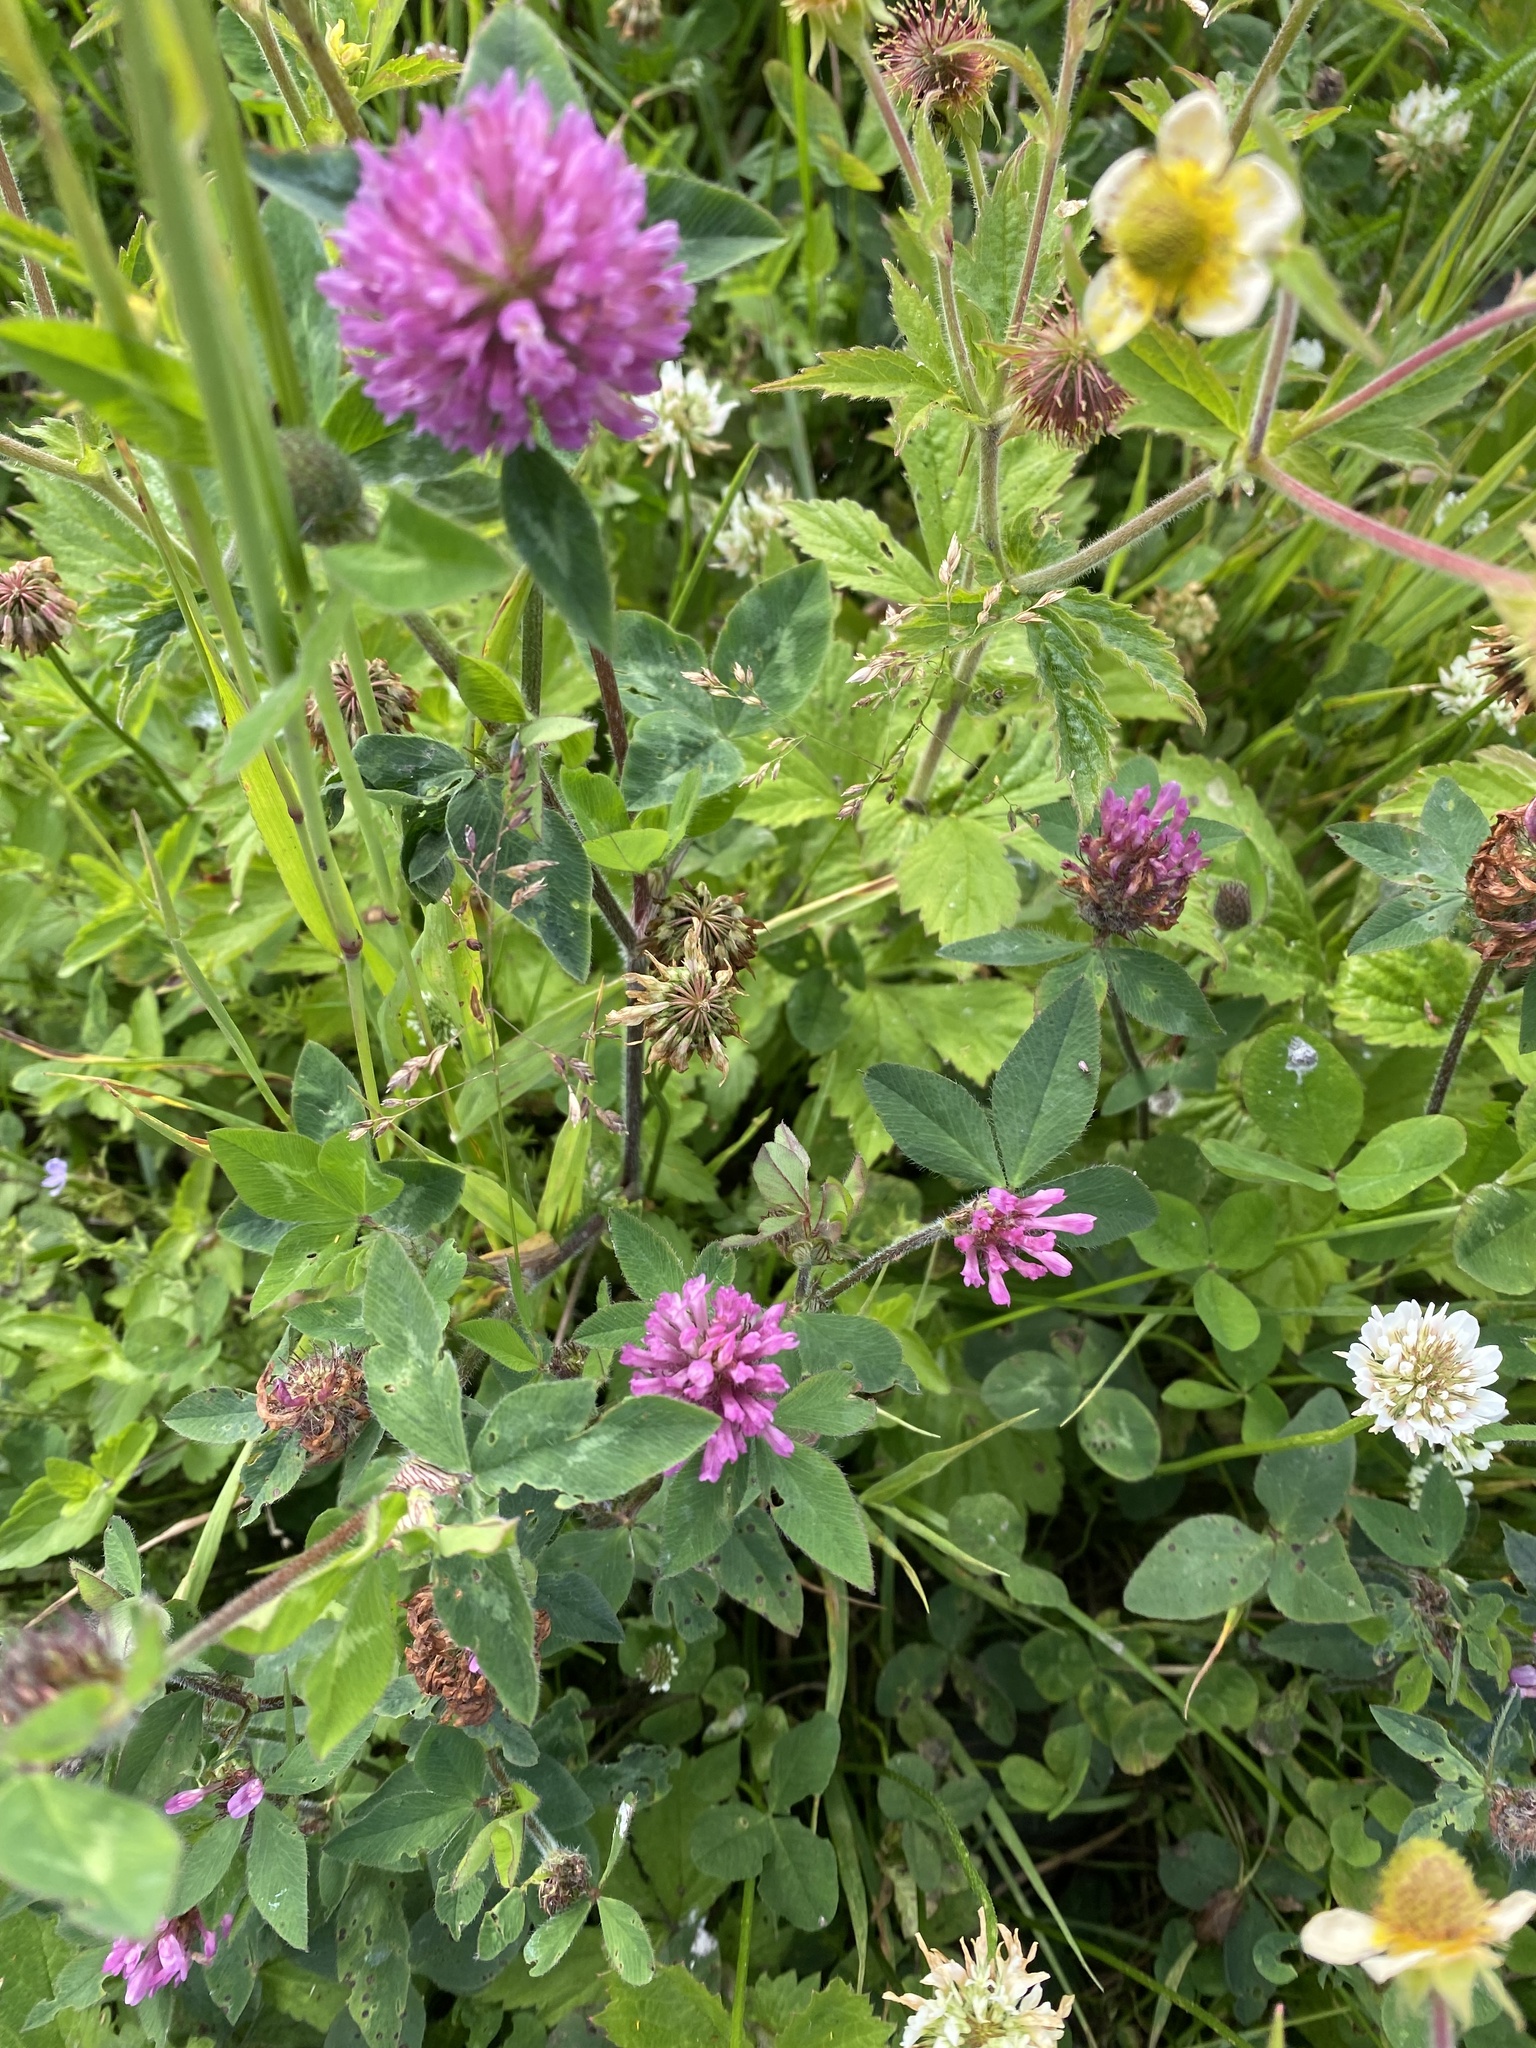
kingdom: Plantae
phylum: Tracheophyta
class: Magnoliopsida
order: Fabales
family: Fabaceae
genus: Trifolium
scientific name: Trifolium pratense
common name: Red clover
